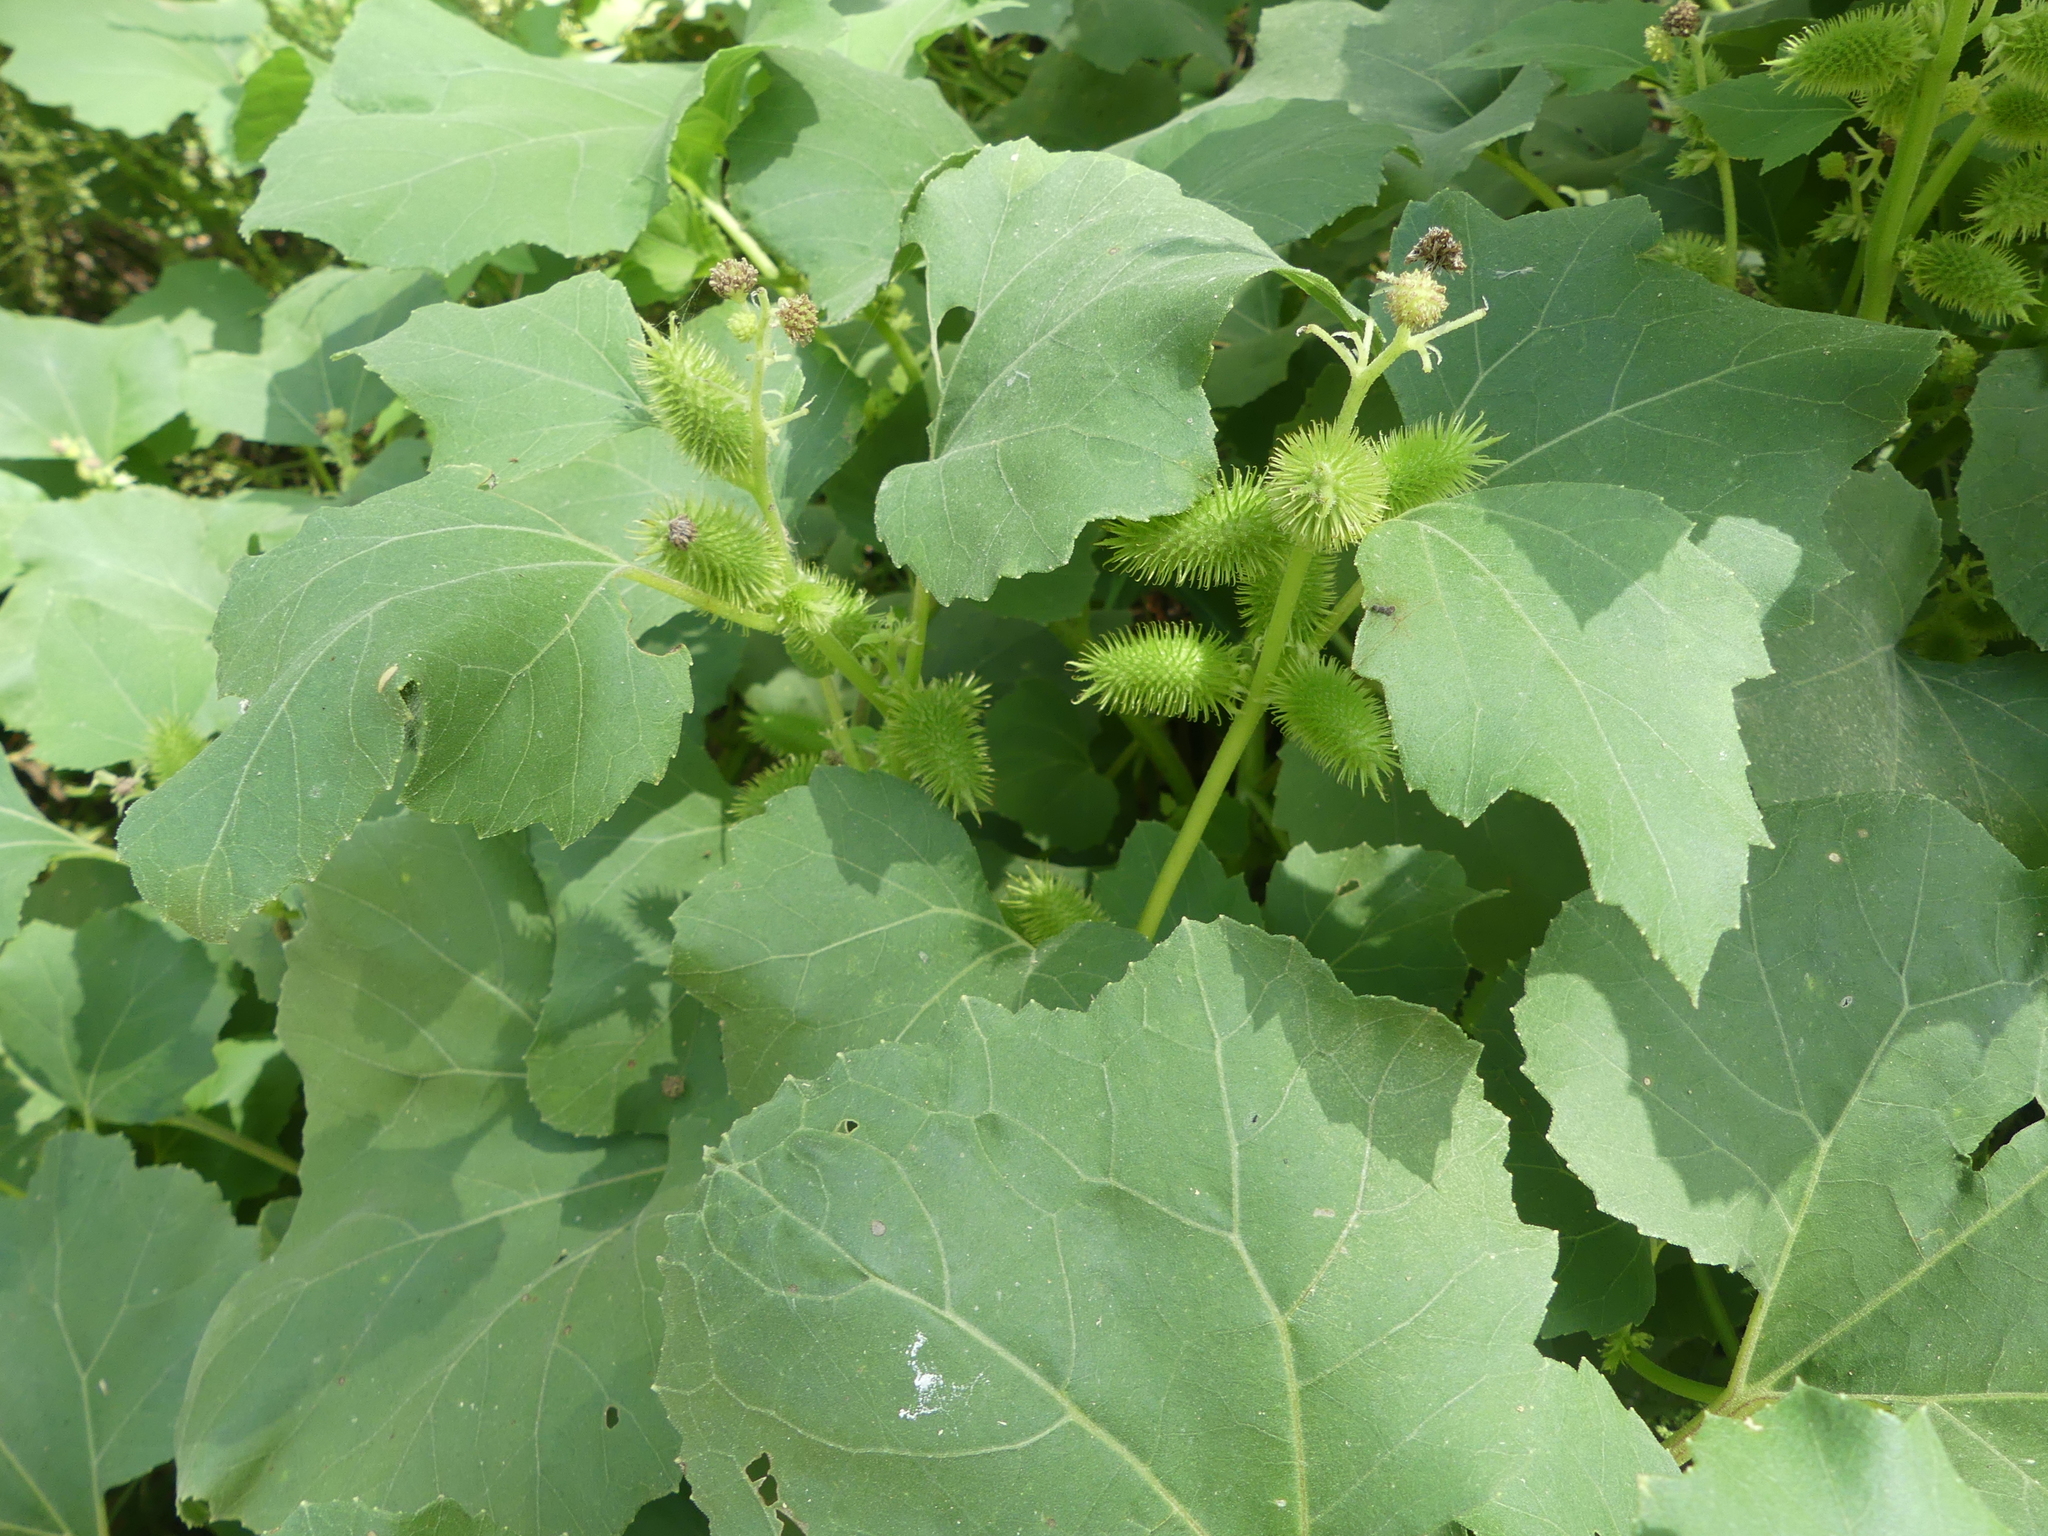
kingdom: Plantae
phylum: Tracheophyta
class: Magnoliopsida
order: Asterales
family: Asteraceae
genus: Xanthium
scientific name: Xanthium strumarium
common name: Rough cocklebur
